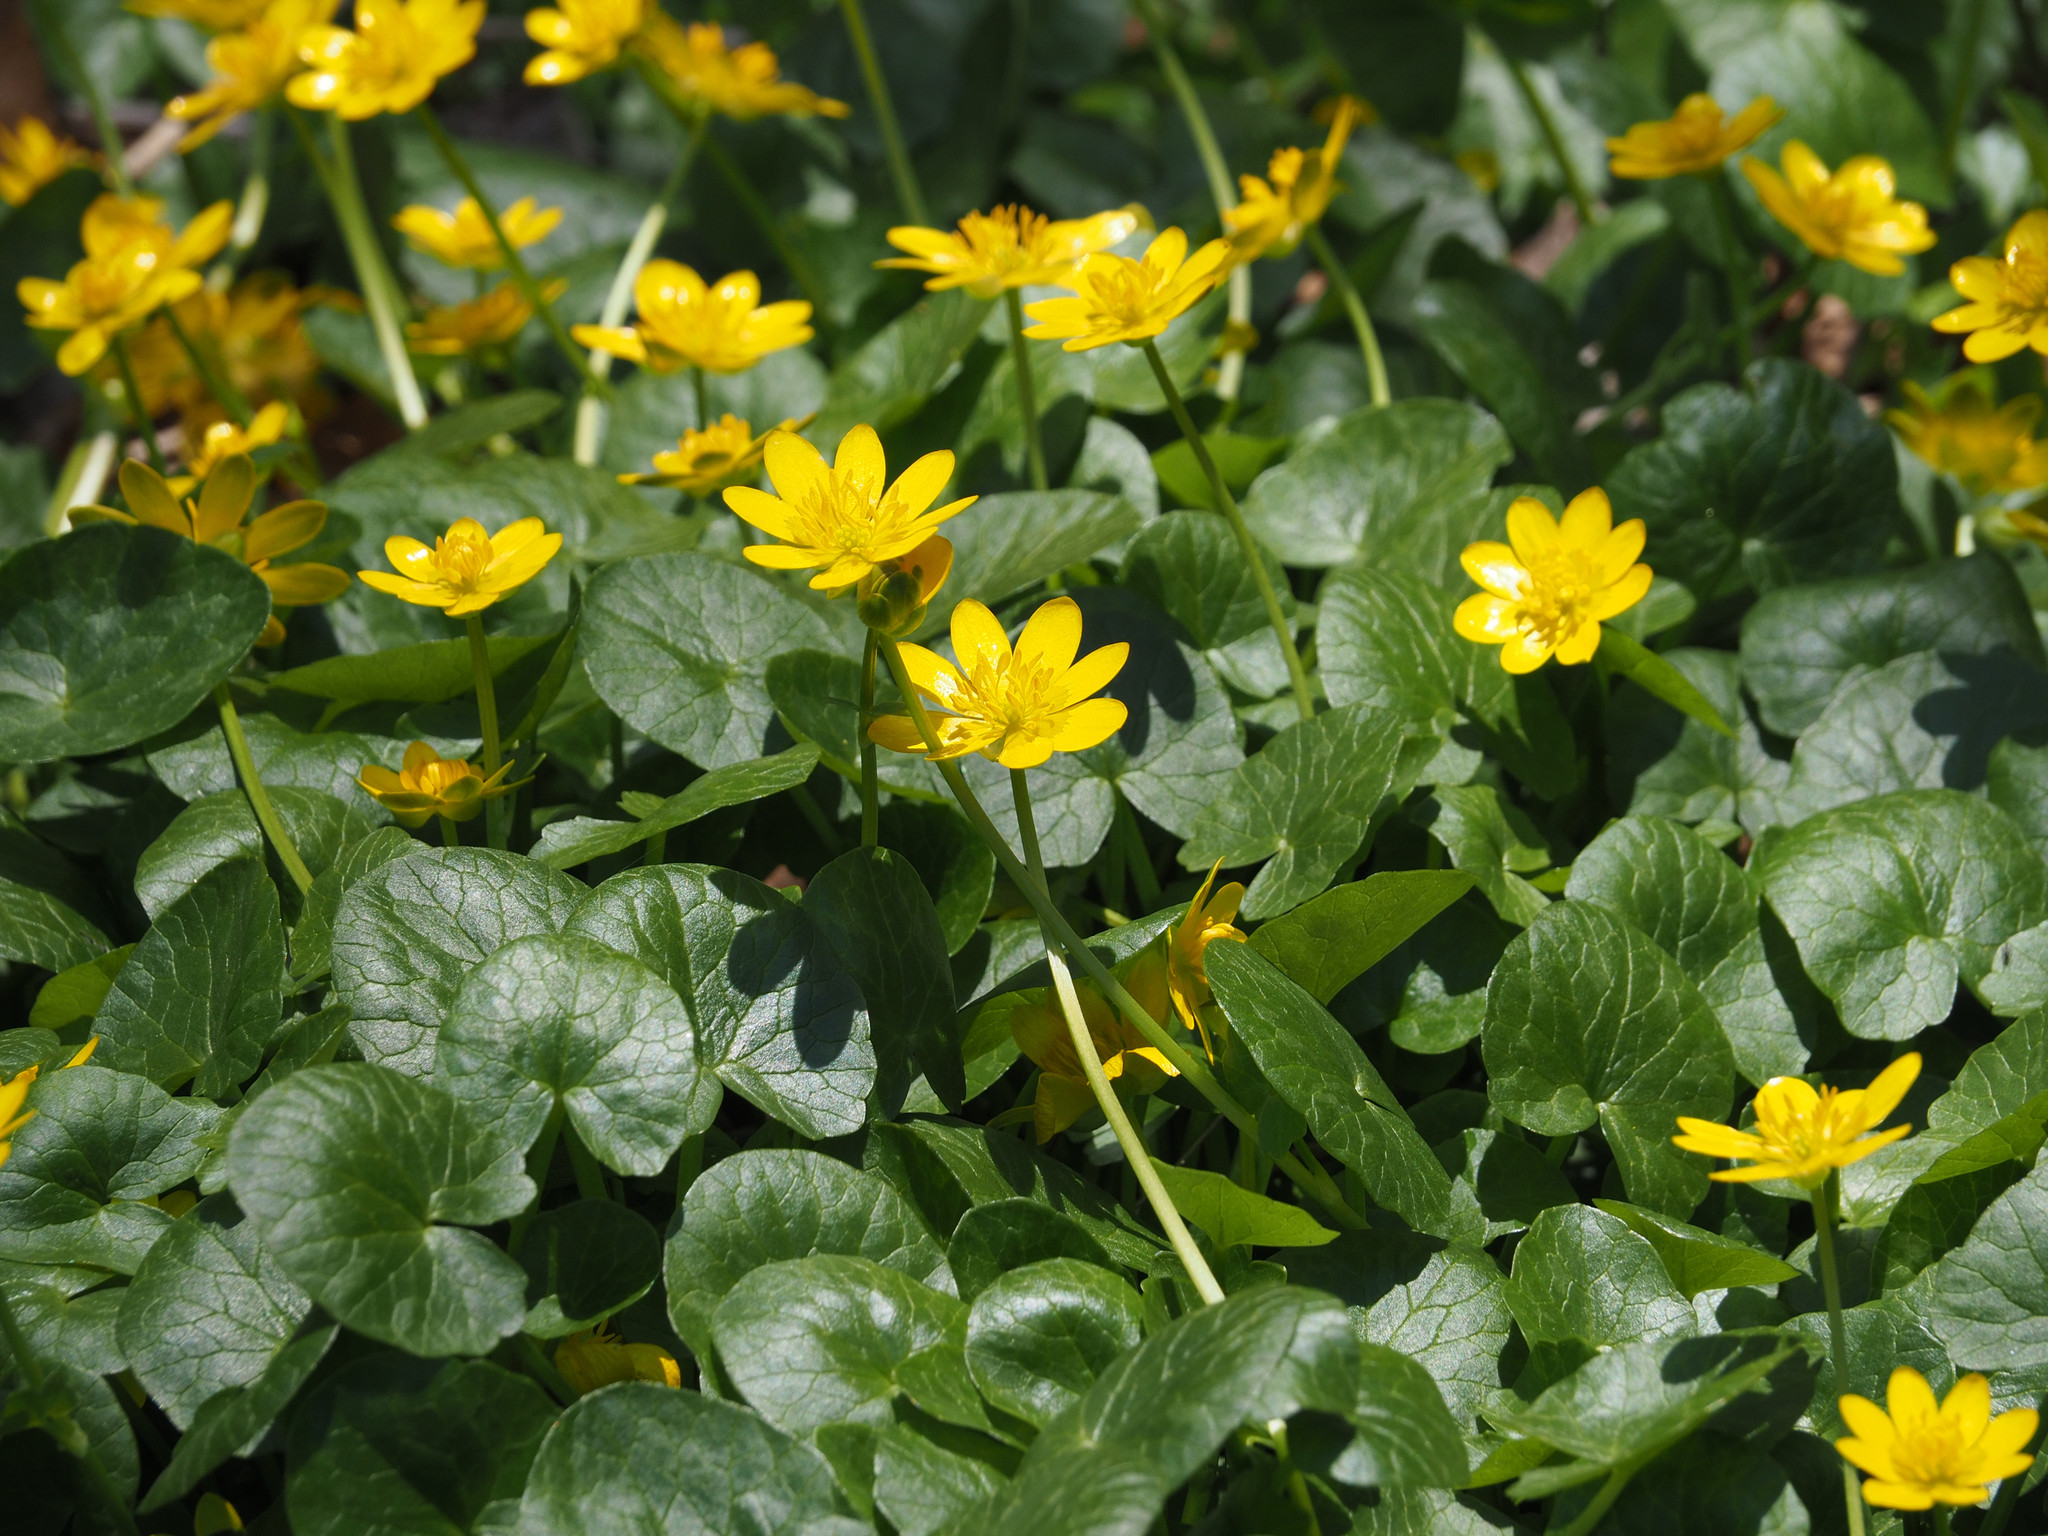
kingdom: Plantae
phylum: Tracheophyta
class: Magnoliopsida
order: Ranunculales
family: Ranunculaceae
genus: Ficaria
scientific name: Ficaria verna
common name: Lesser celandine
